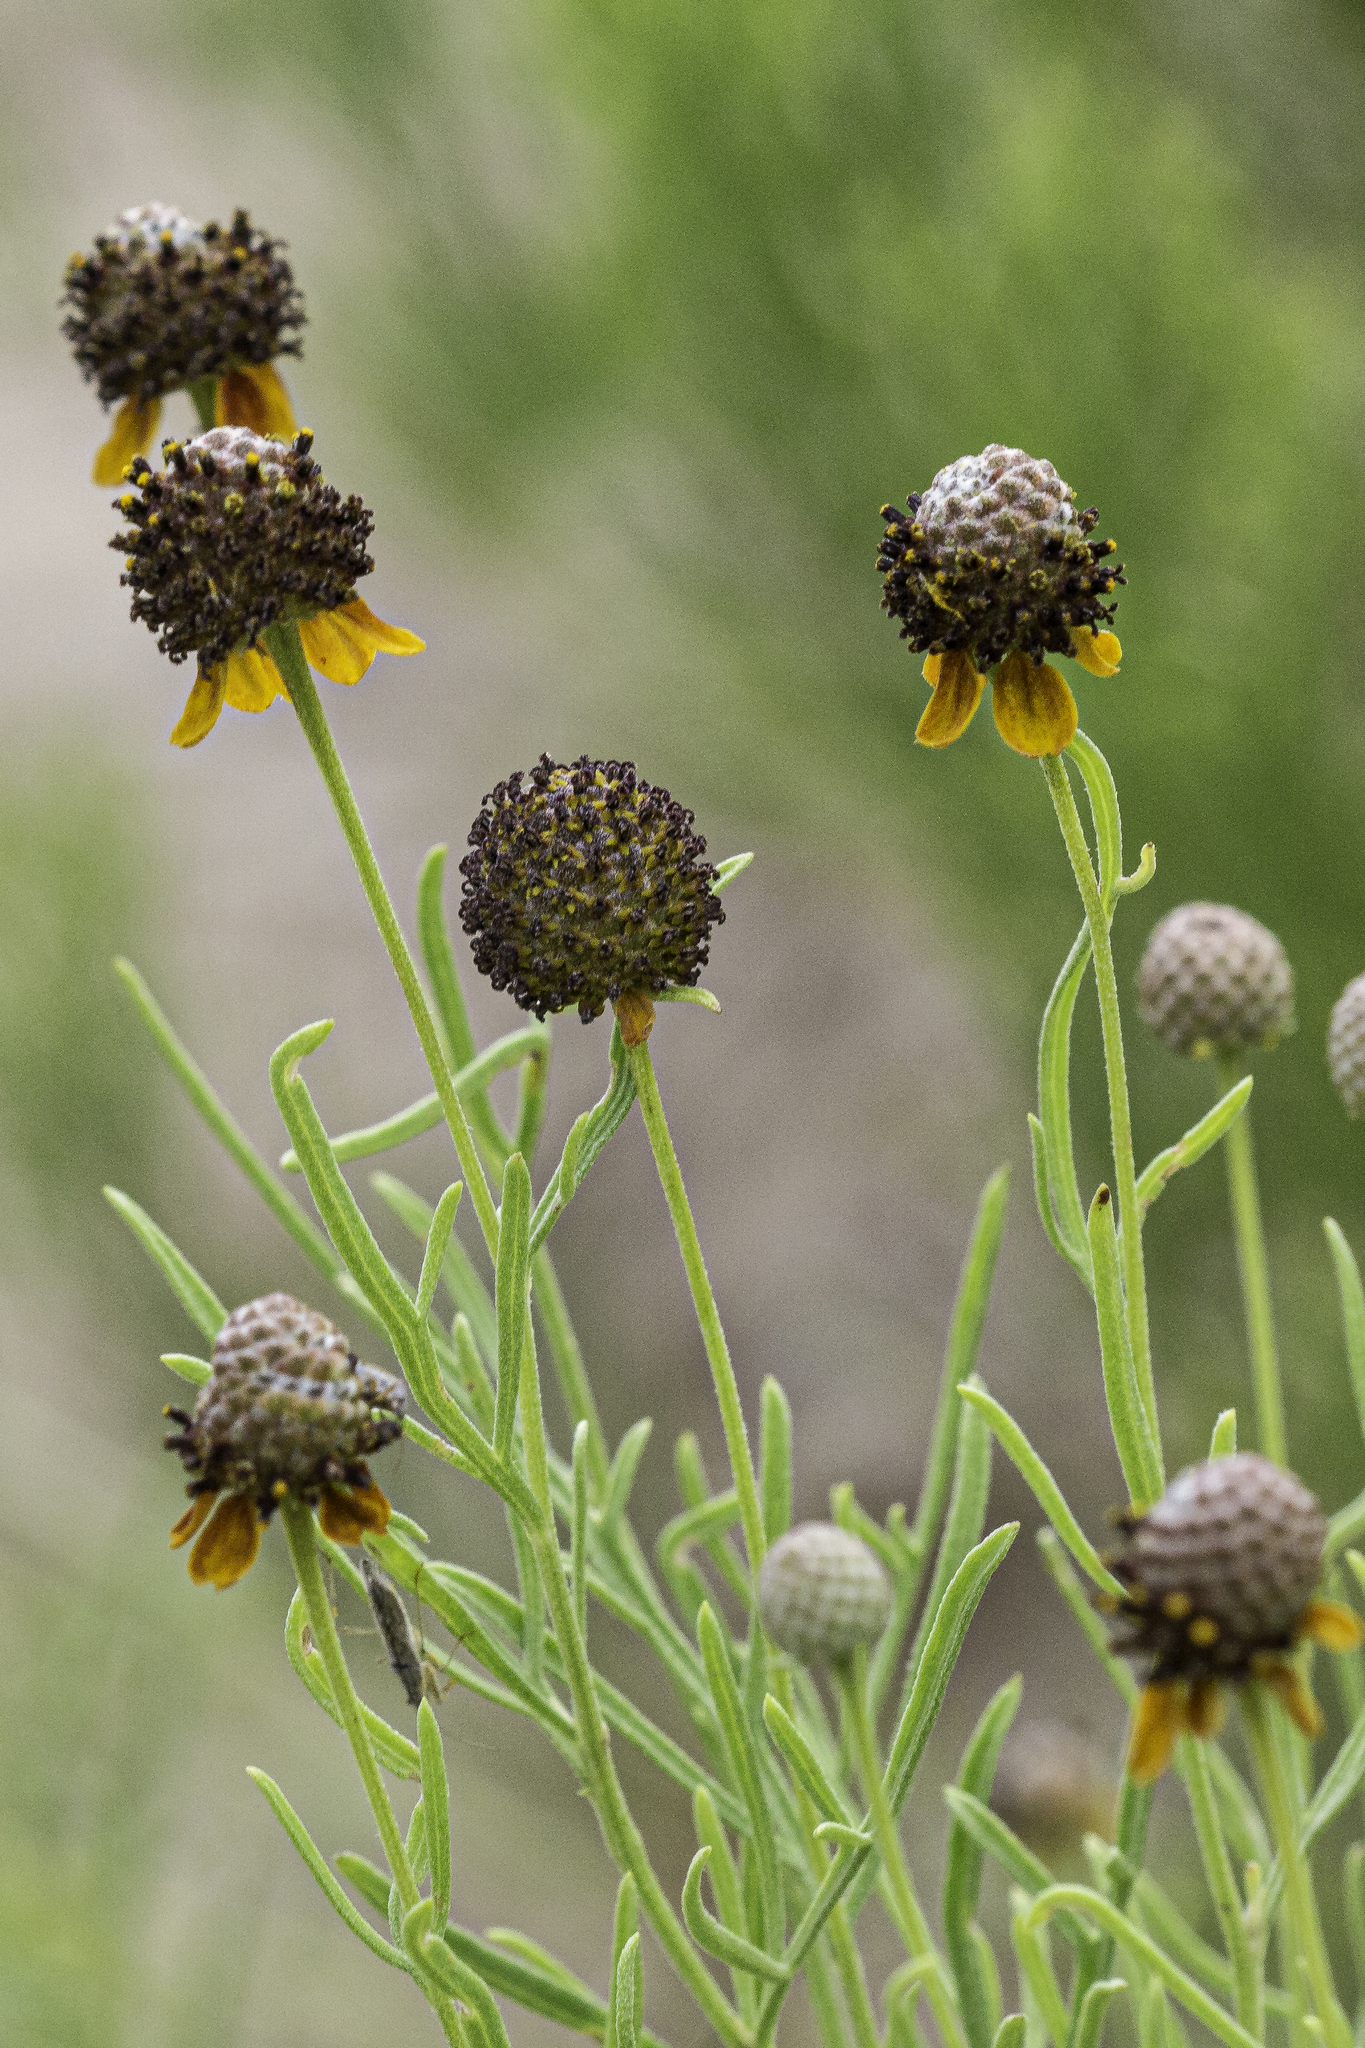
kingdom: Plantae
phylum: Tracheophyta
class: Magnoliopsida
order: Asterales
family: Asteraceae
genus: Ratibida
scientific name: Ratibida tagetes
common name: Green mexican-hat
